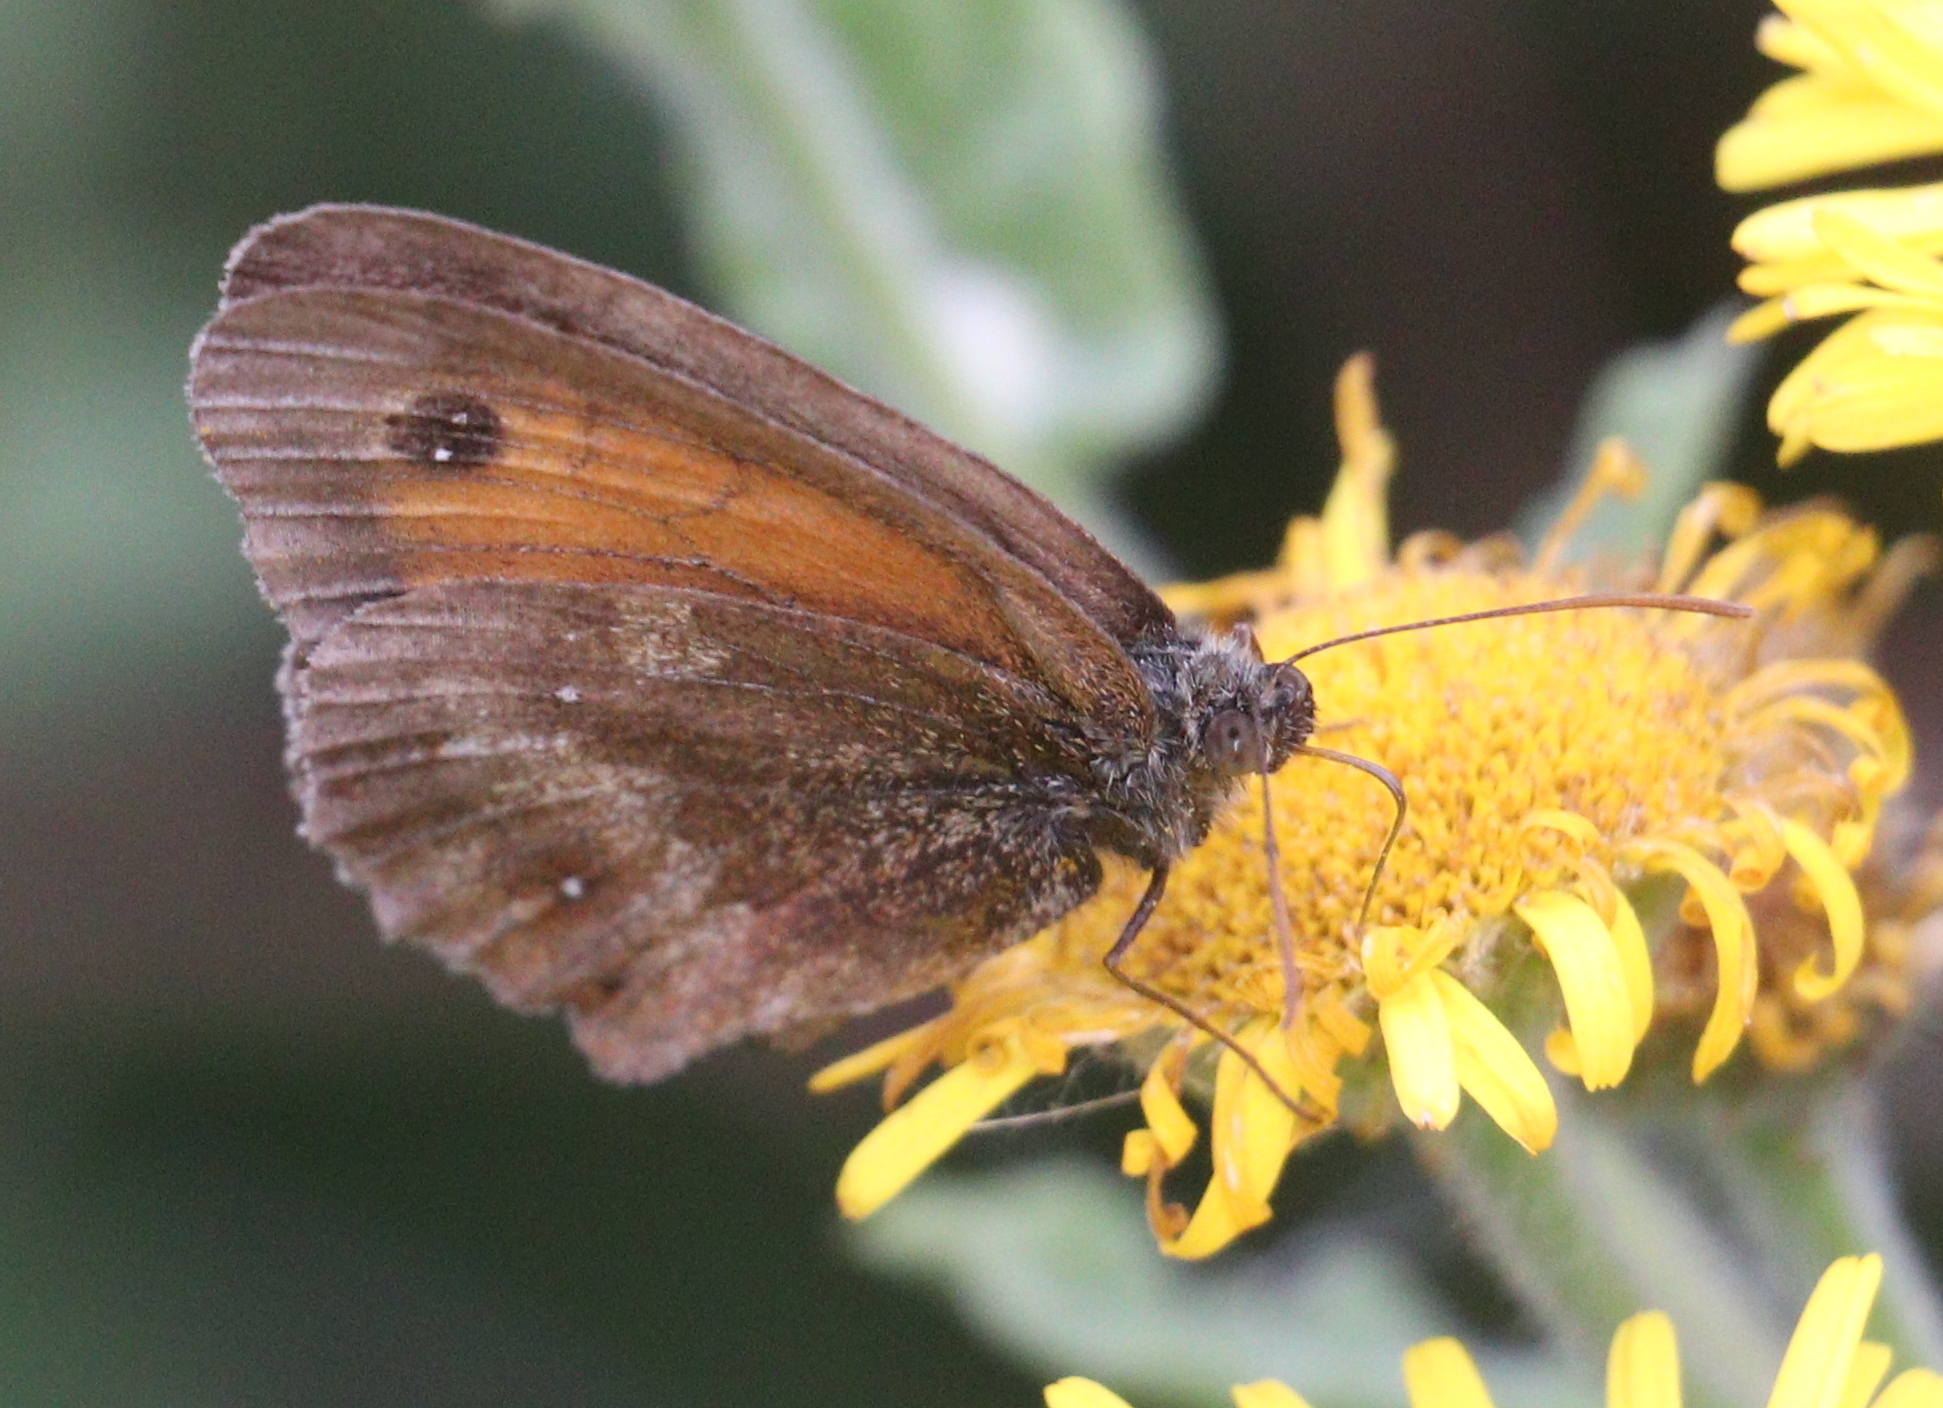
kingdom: Animalia
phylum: Arthropoda
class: Insecta
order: Lepidoptera
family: Nymphalidae
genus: Pyronia
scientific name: Pyronia tithonus
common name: Gatekeeper
